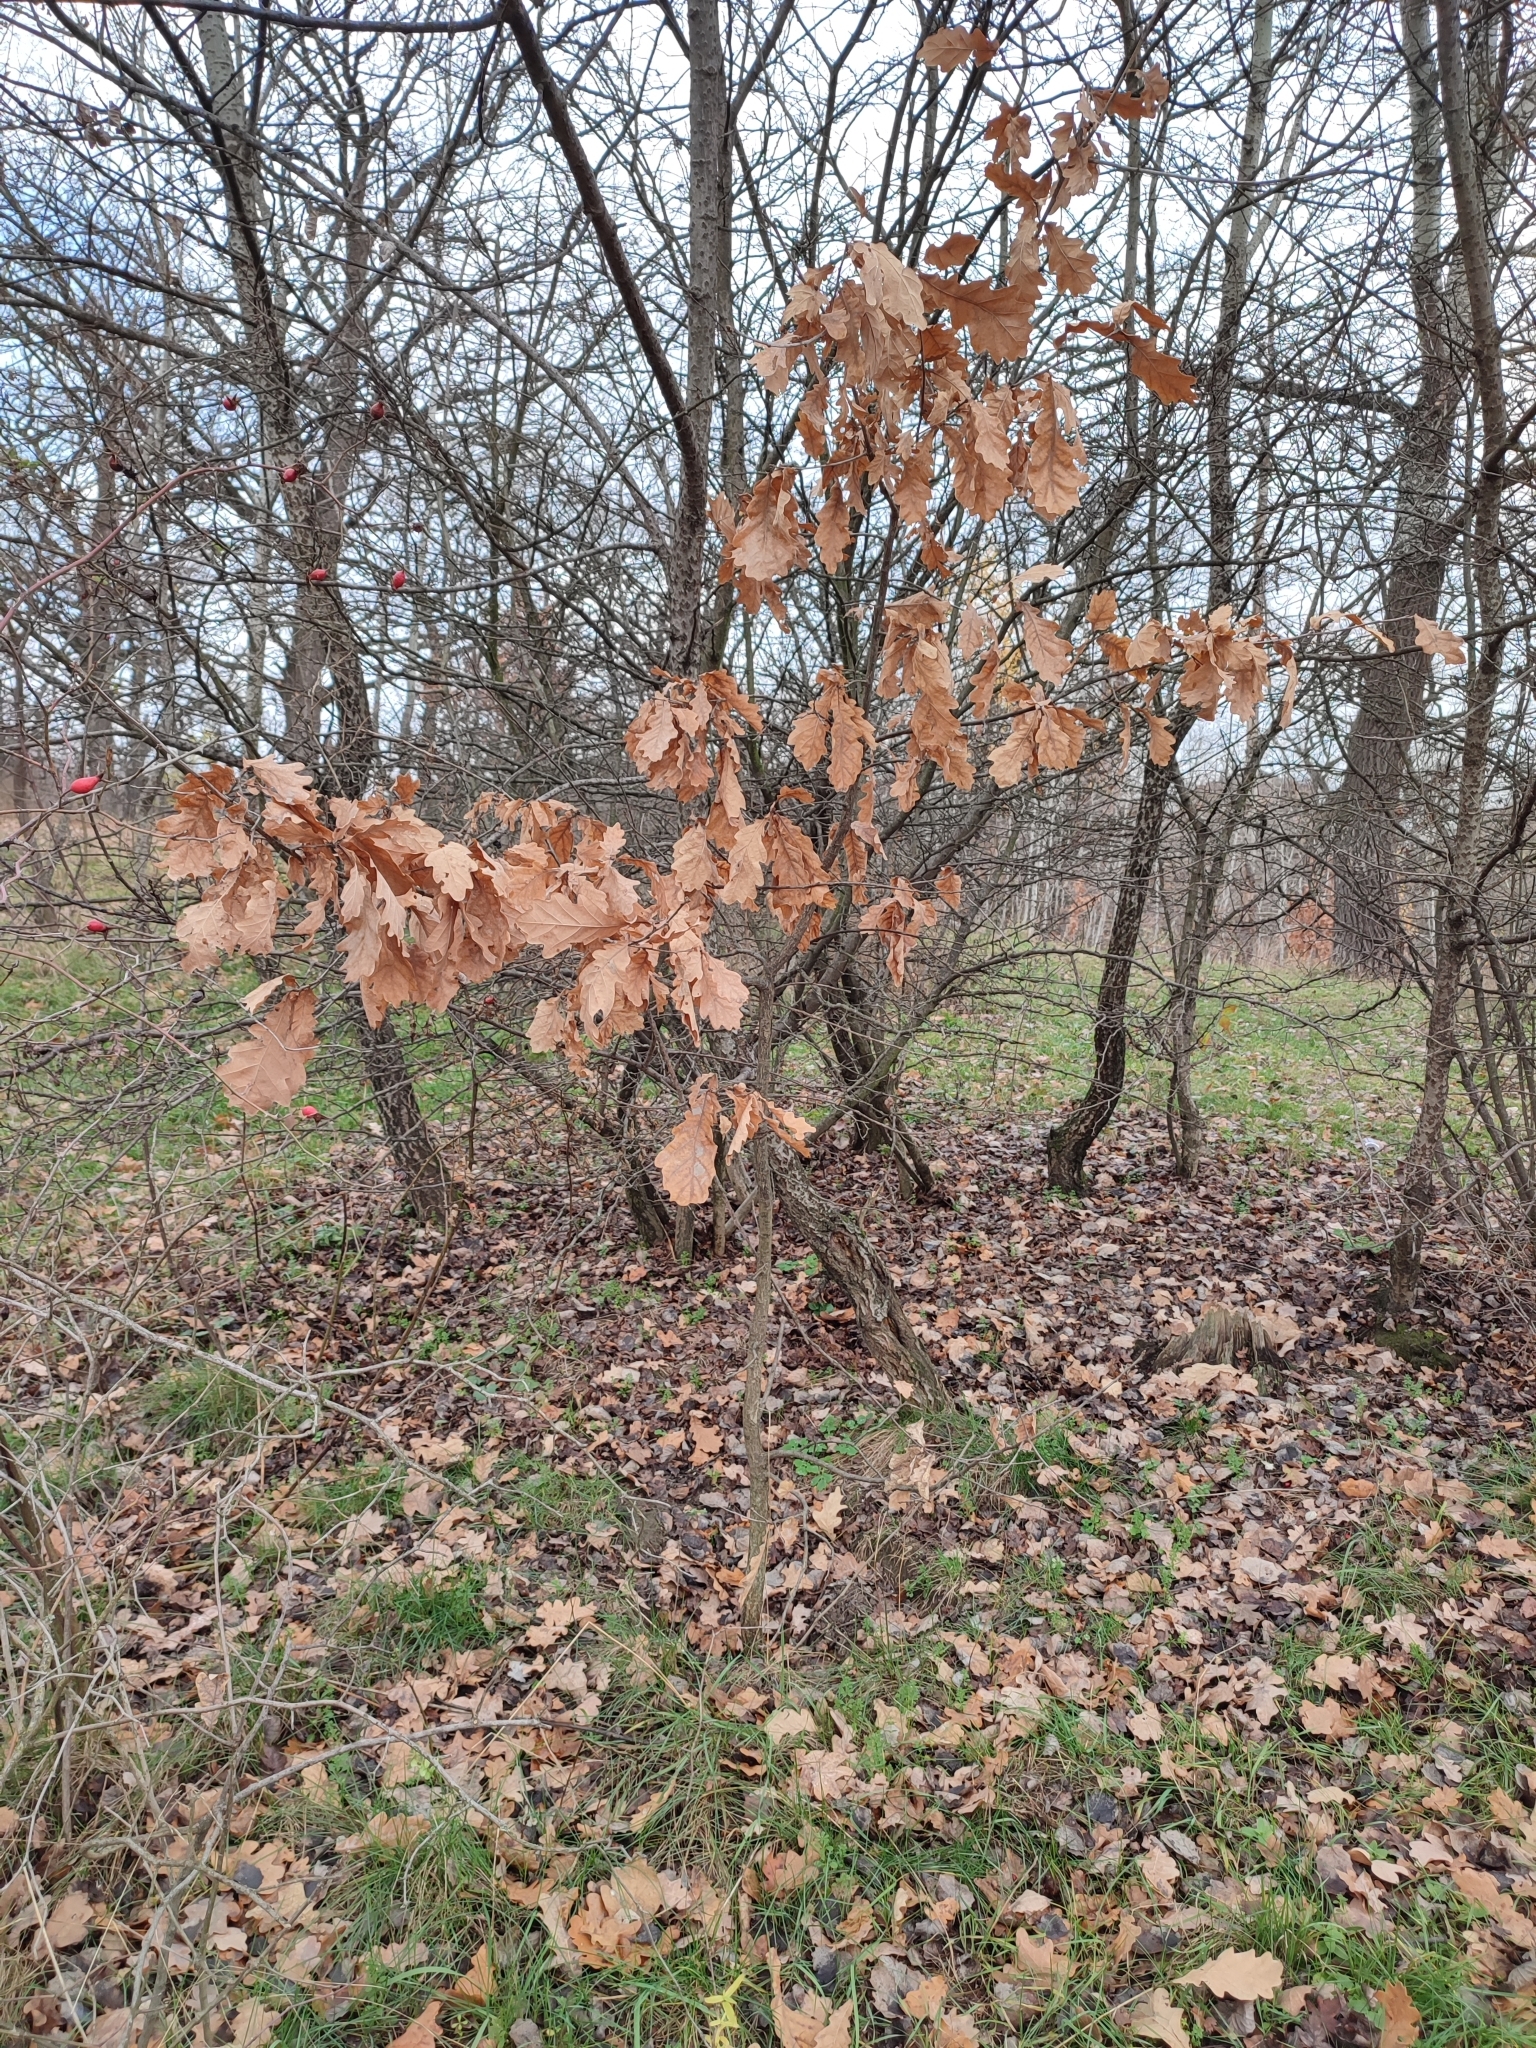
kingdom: Plantae
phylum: Tracheophyta
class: Magnoliopsida
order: Fagales
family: Fagaceae
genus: Quercus
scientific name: Quercus robur
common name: Pedunculate oak
